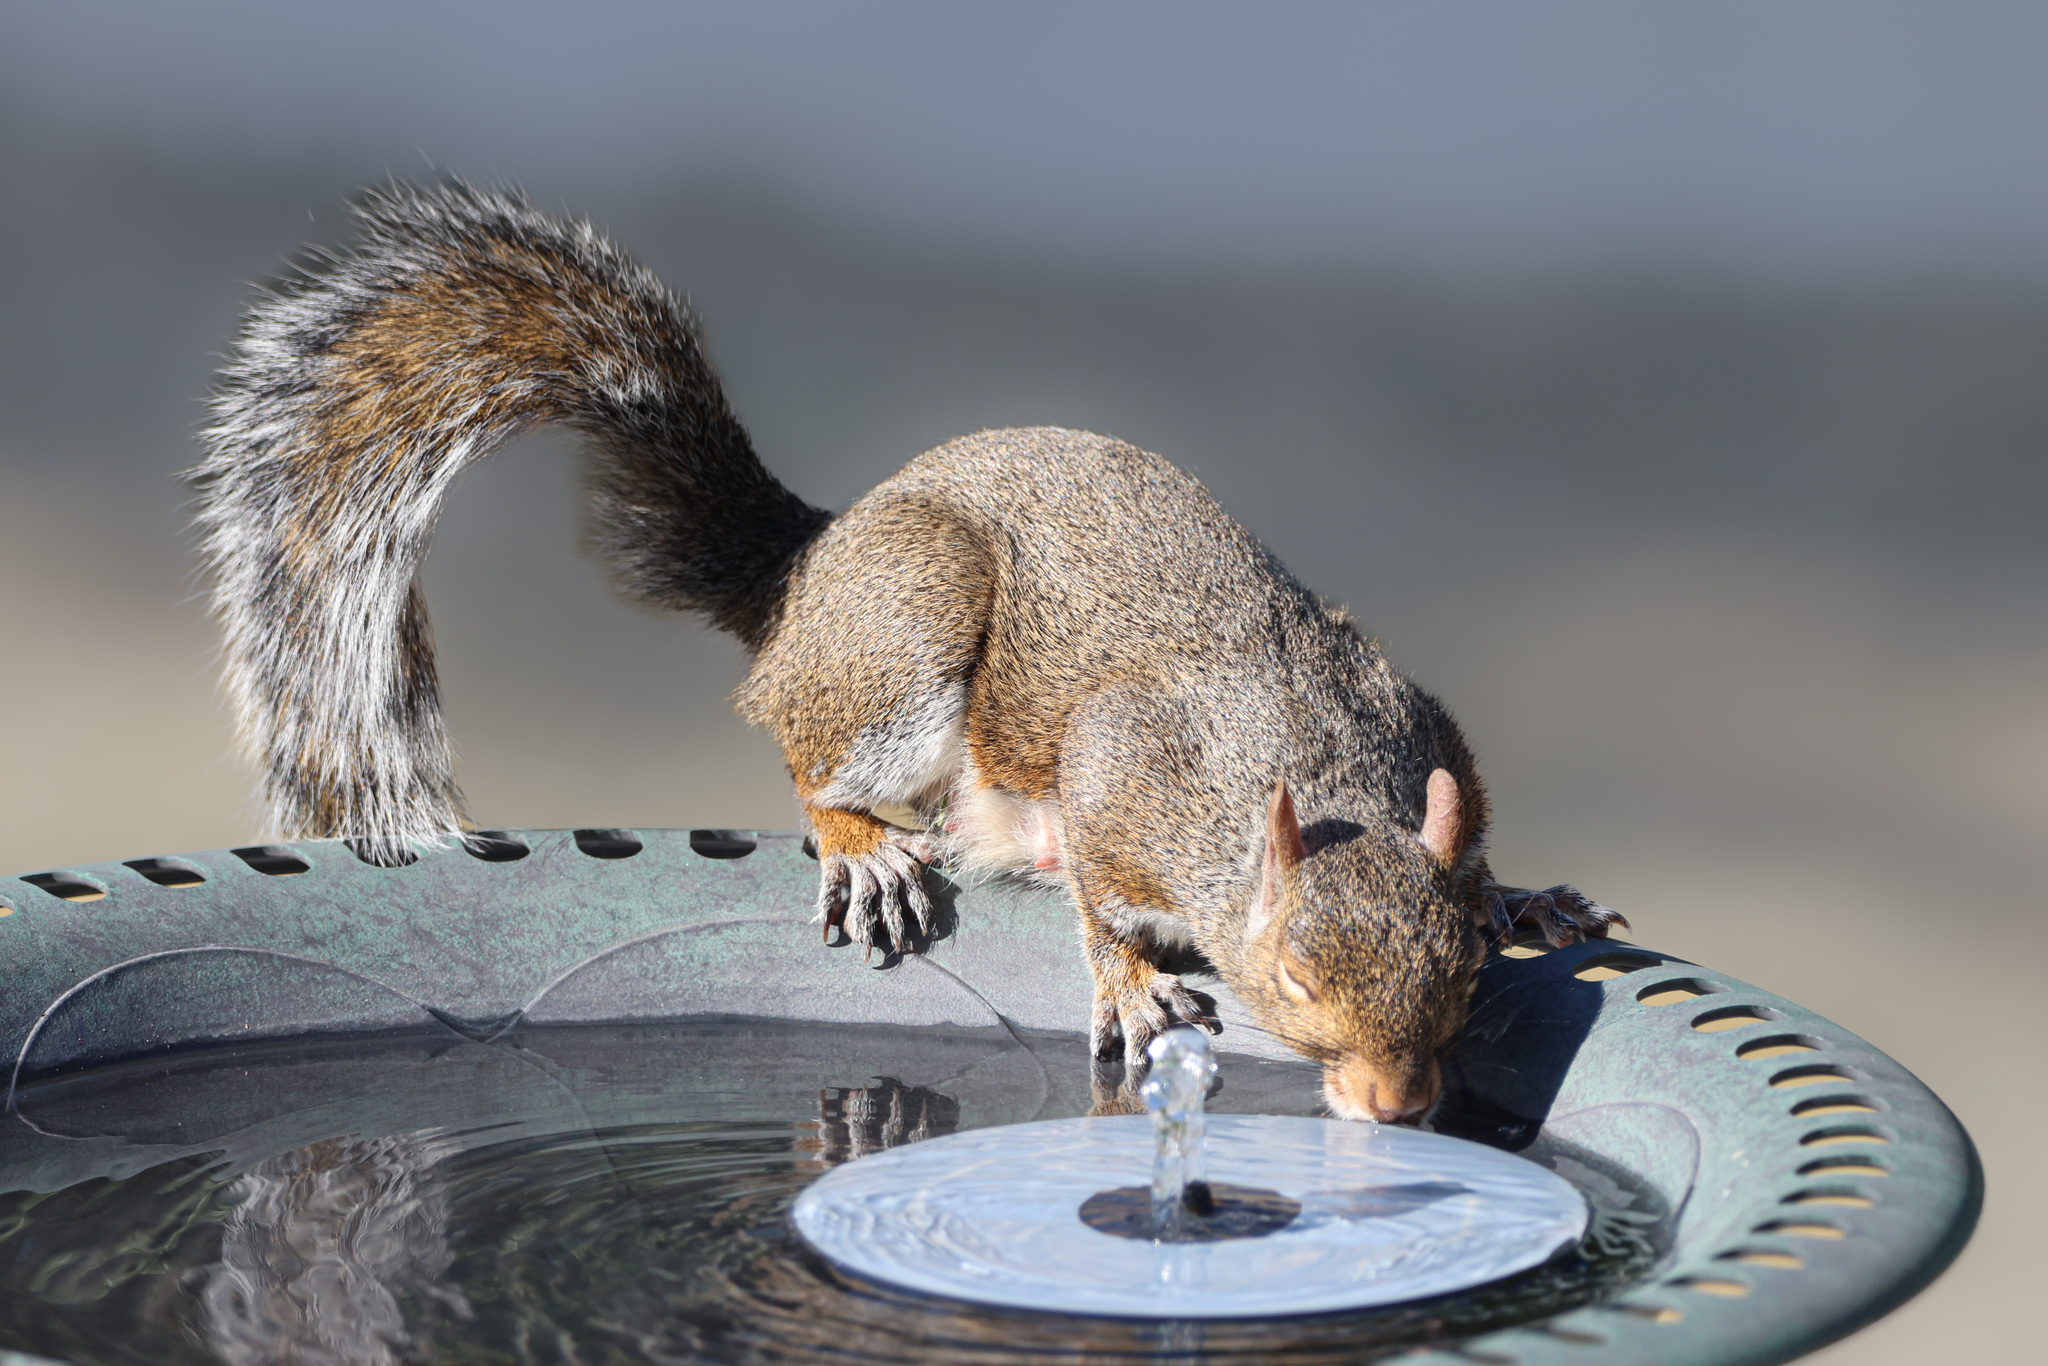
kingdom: Animalia
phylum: Chordata
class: Mammalia
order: Rodentia
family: Sciuridae
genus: Sciurus
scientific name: Sciurus carolinensis
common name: Eastern gray squirrel
